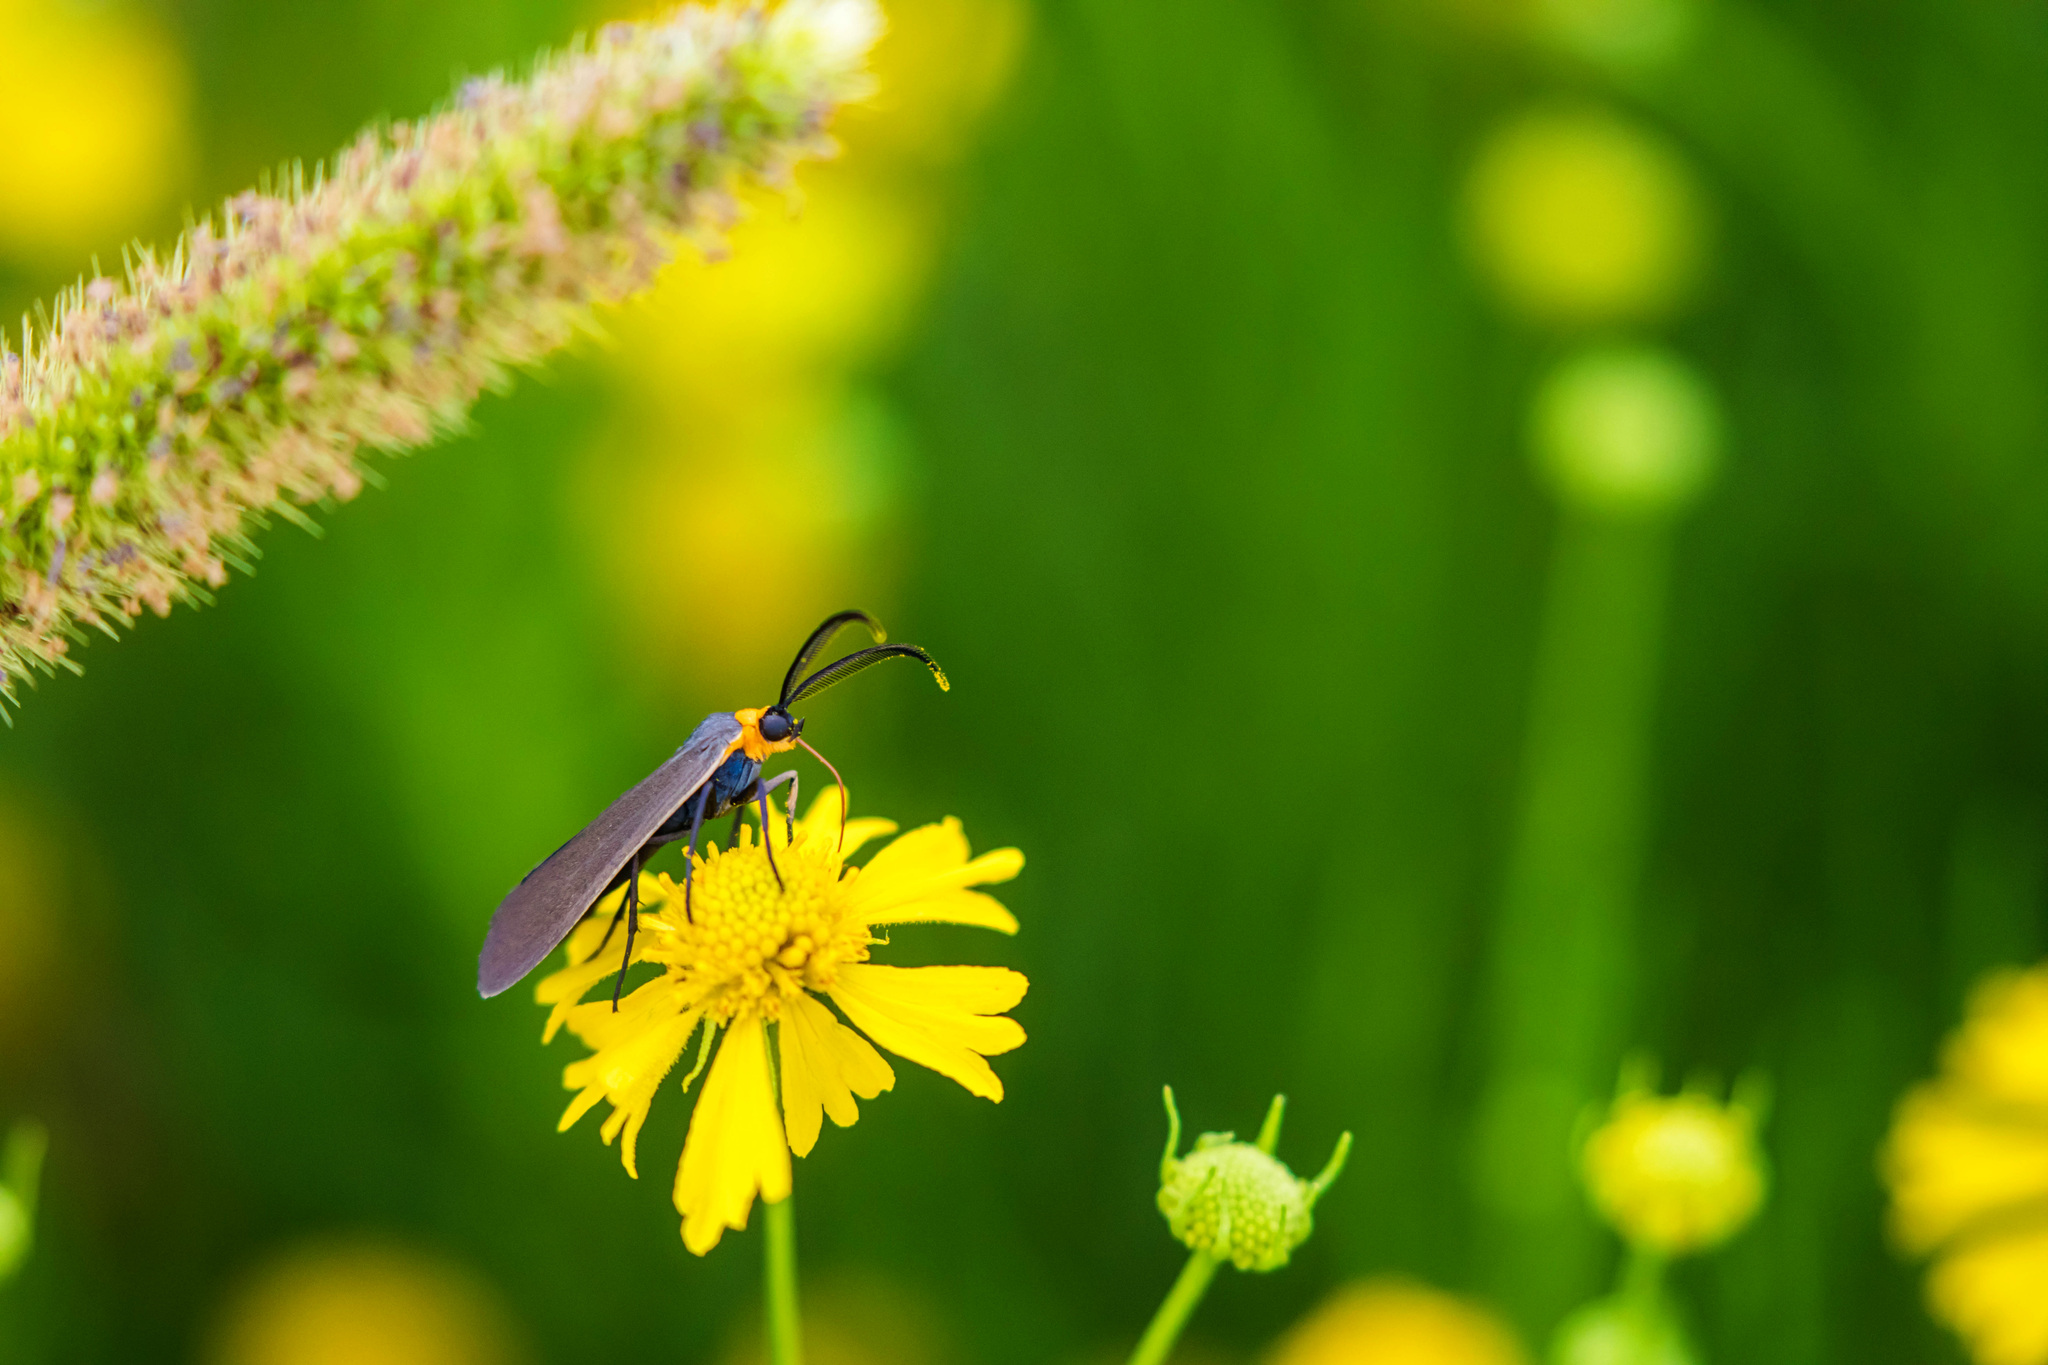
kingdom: Animalia
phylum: Arthropoda
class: Insecta
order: Lepidoptera
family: Erebidae
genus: Cisseps
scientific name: Cisseps fulvicollis
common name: Yellow-collared scape moth
